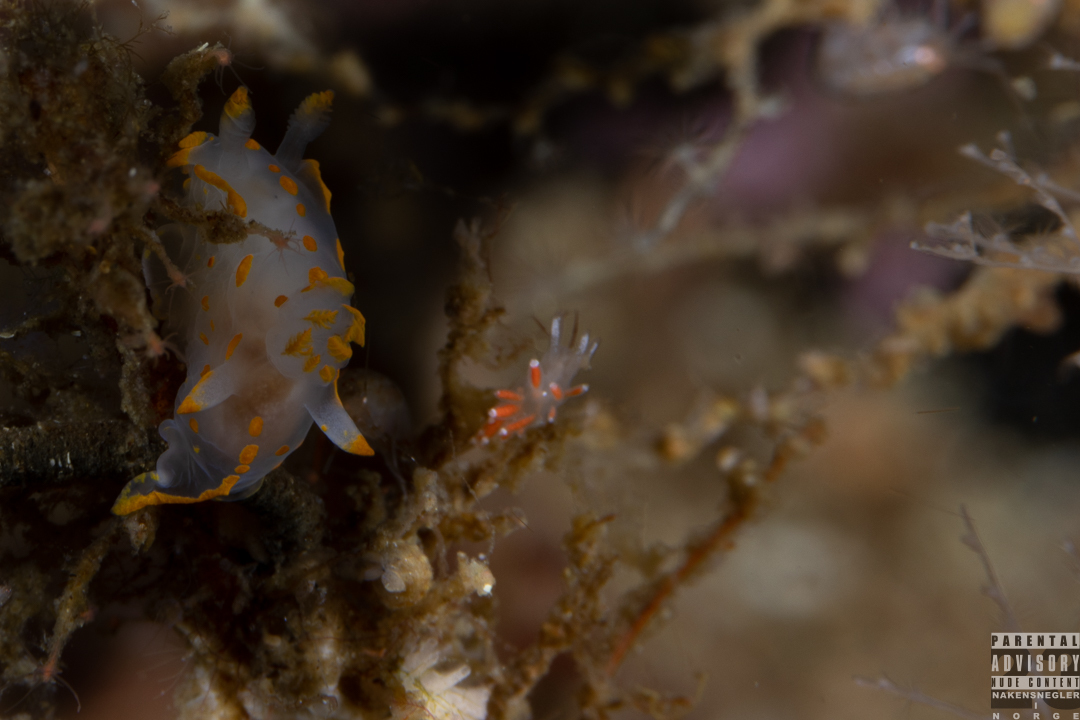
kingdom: Animalia
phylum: Mollusca
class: Gastropoda
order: Nudibranchia
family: Coryphellidae
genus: Coryphella
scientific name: Coryphella gracilis
